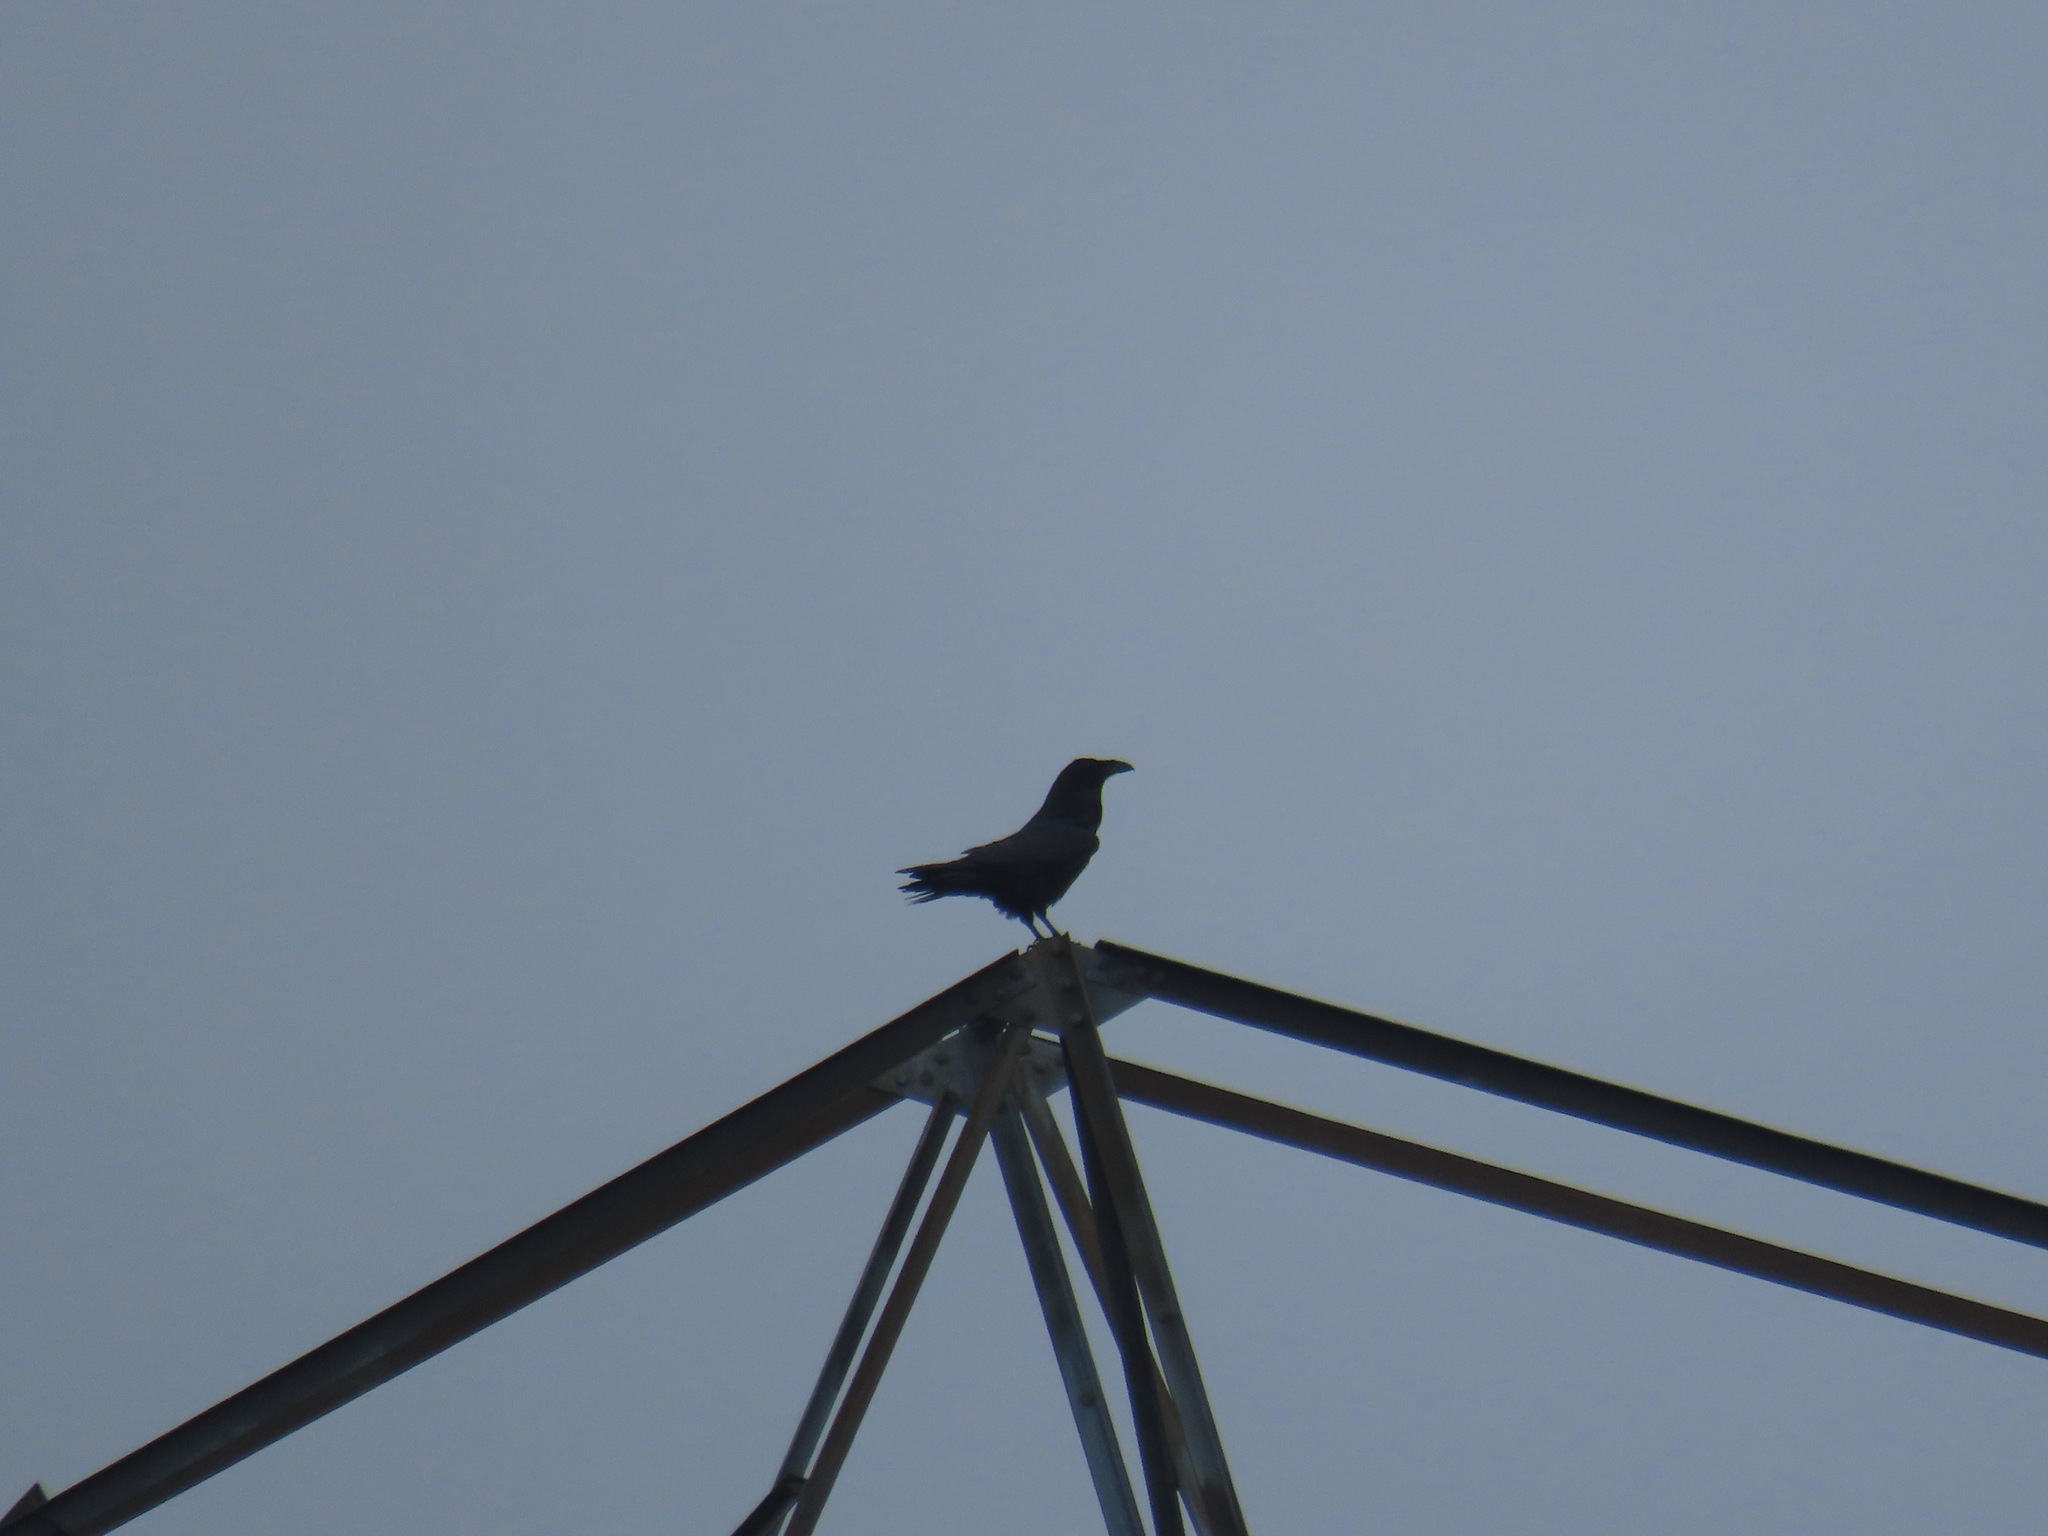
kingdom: Animalia
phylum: Chordata
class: Aves
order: Passeriformes
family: Corvidae
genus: Corvus
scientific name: Corvus corax
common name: Common raven
